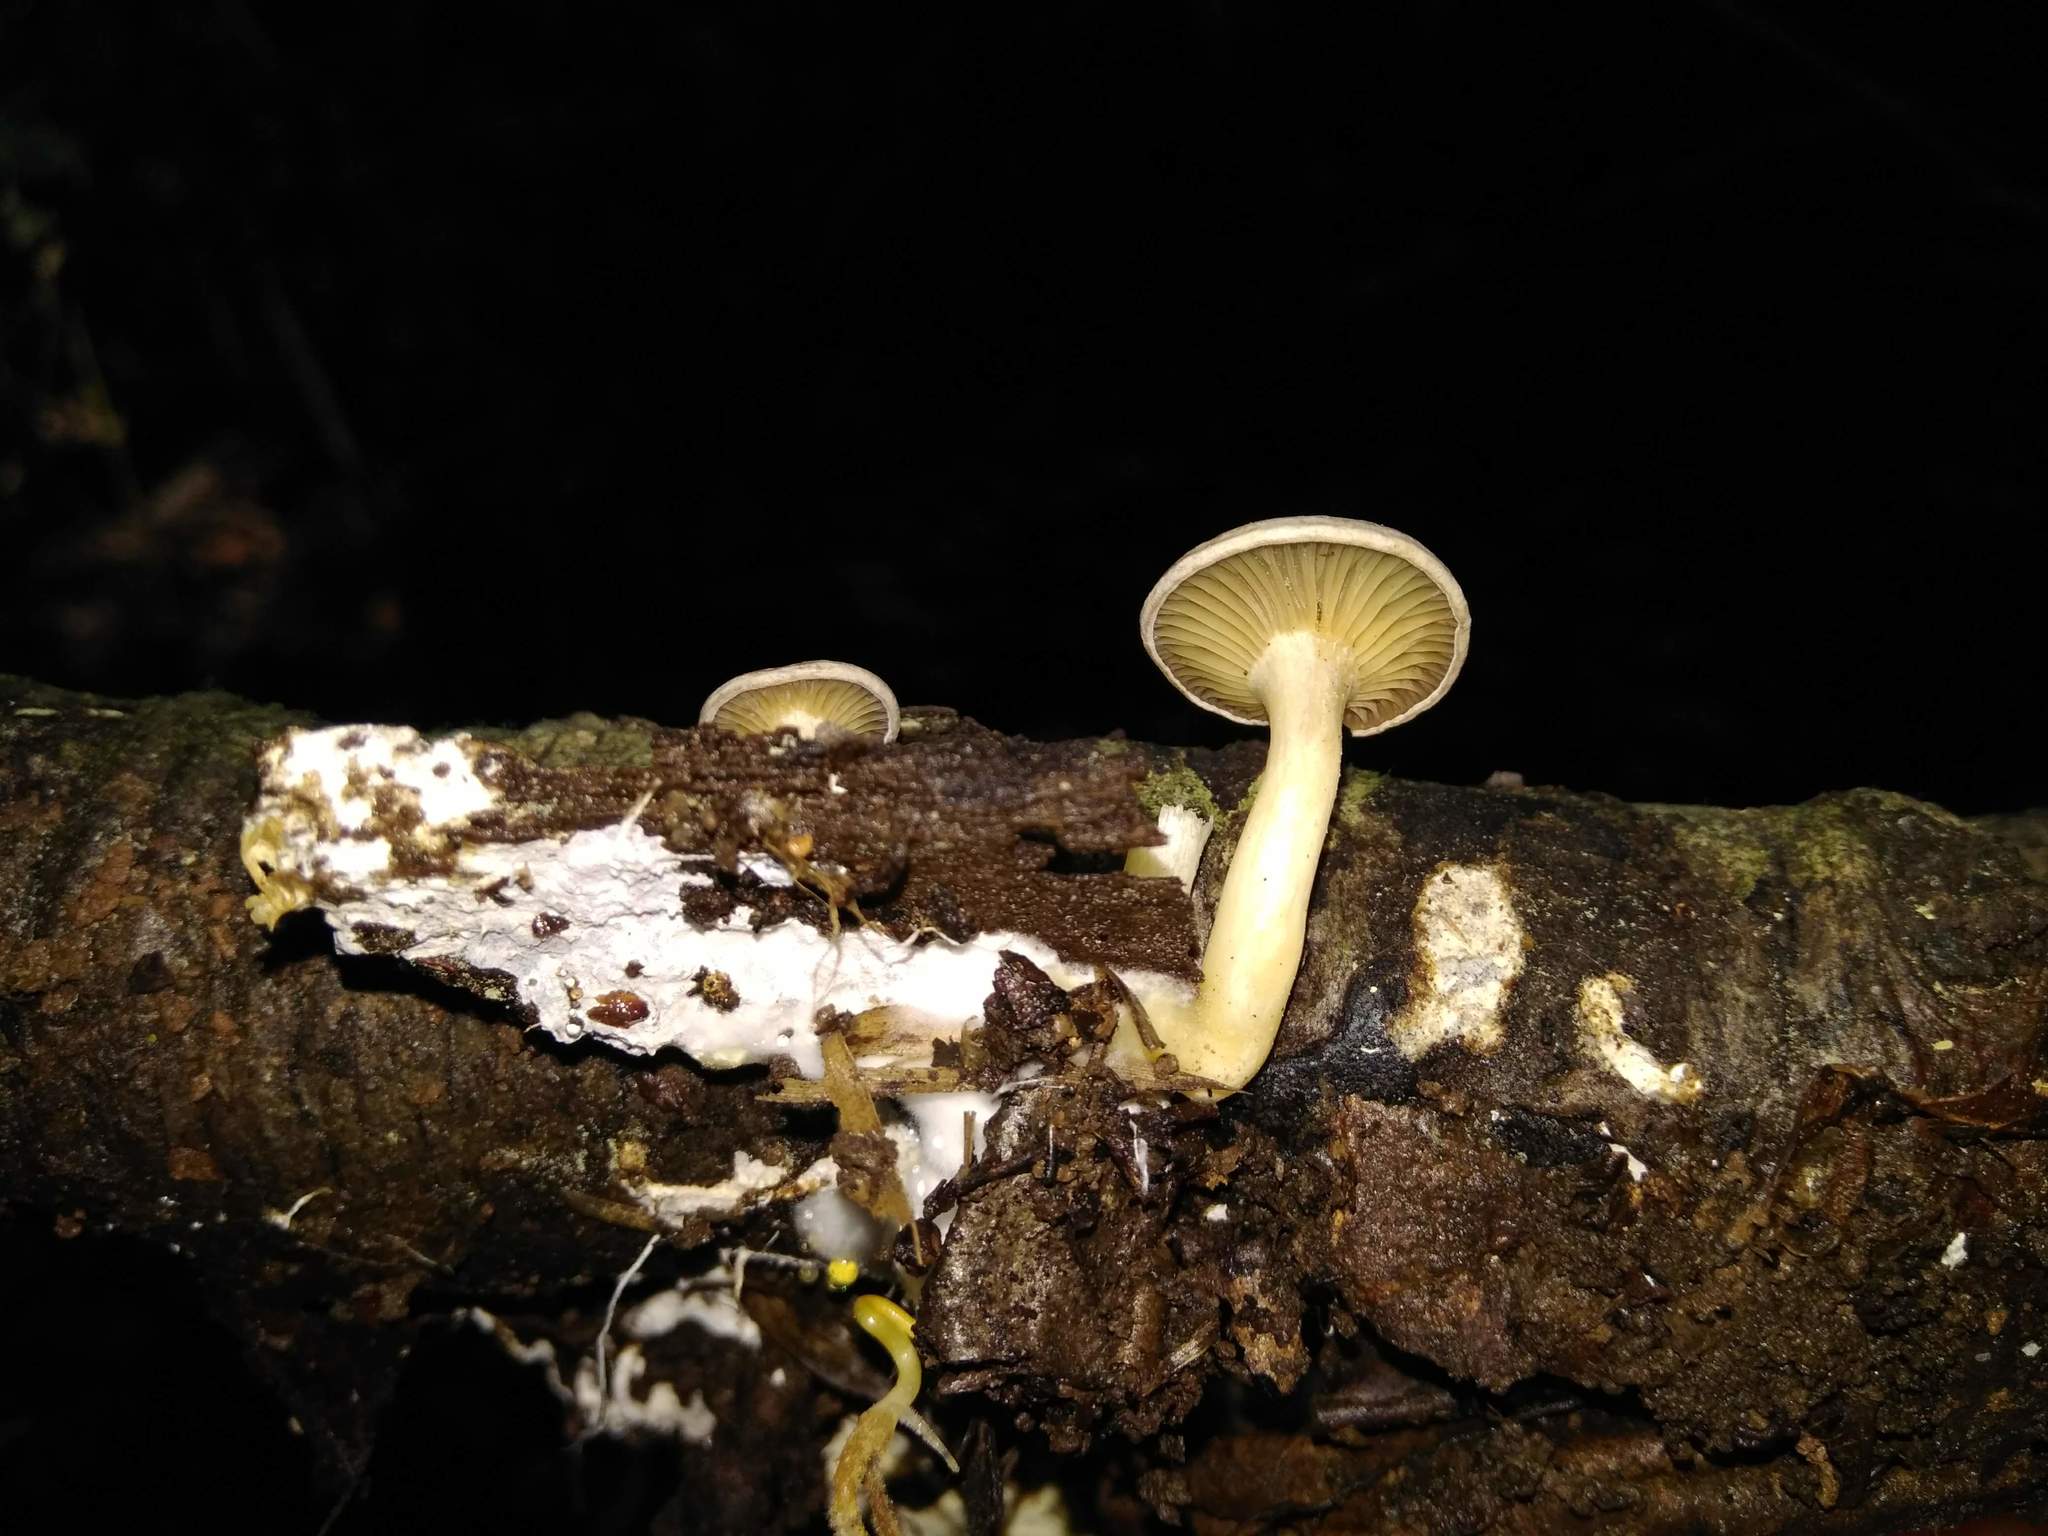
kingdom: Fungi
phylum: Basidiomycota
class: Agaricomycetes
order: Agaricales
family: Mycenaceae
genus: Hydropus
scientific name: Hydropus dusenii
